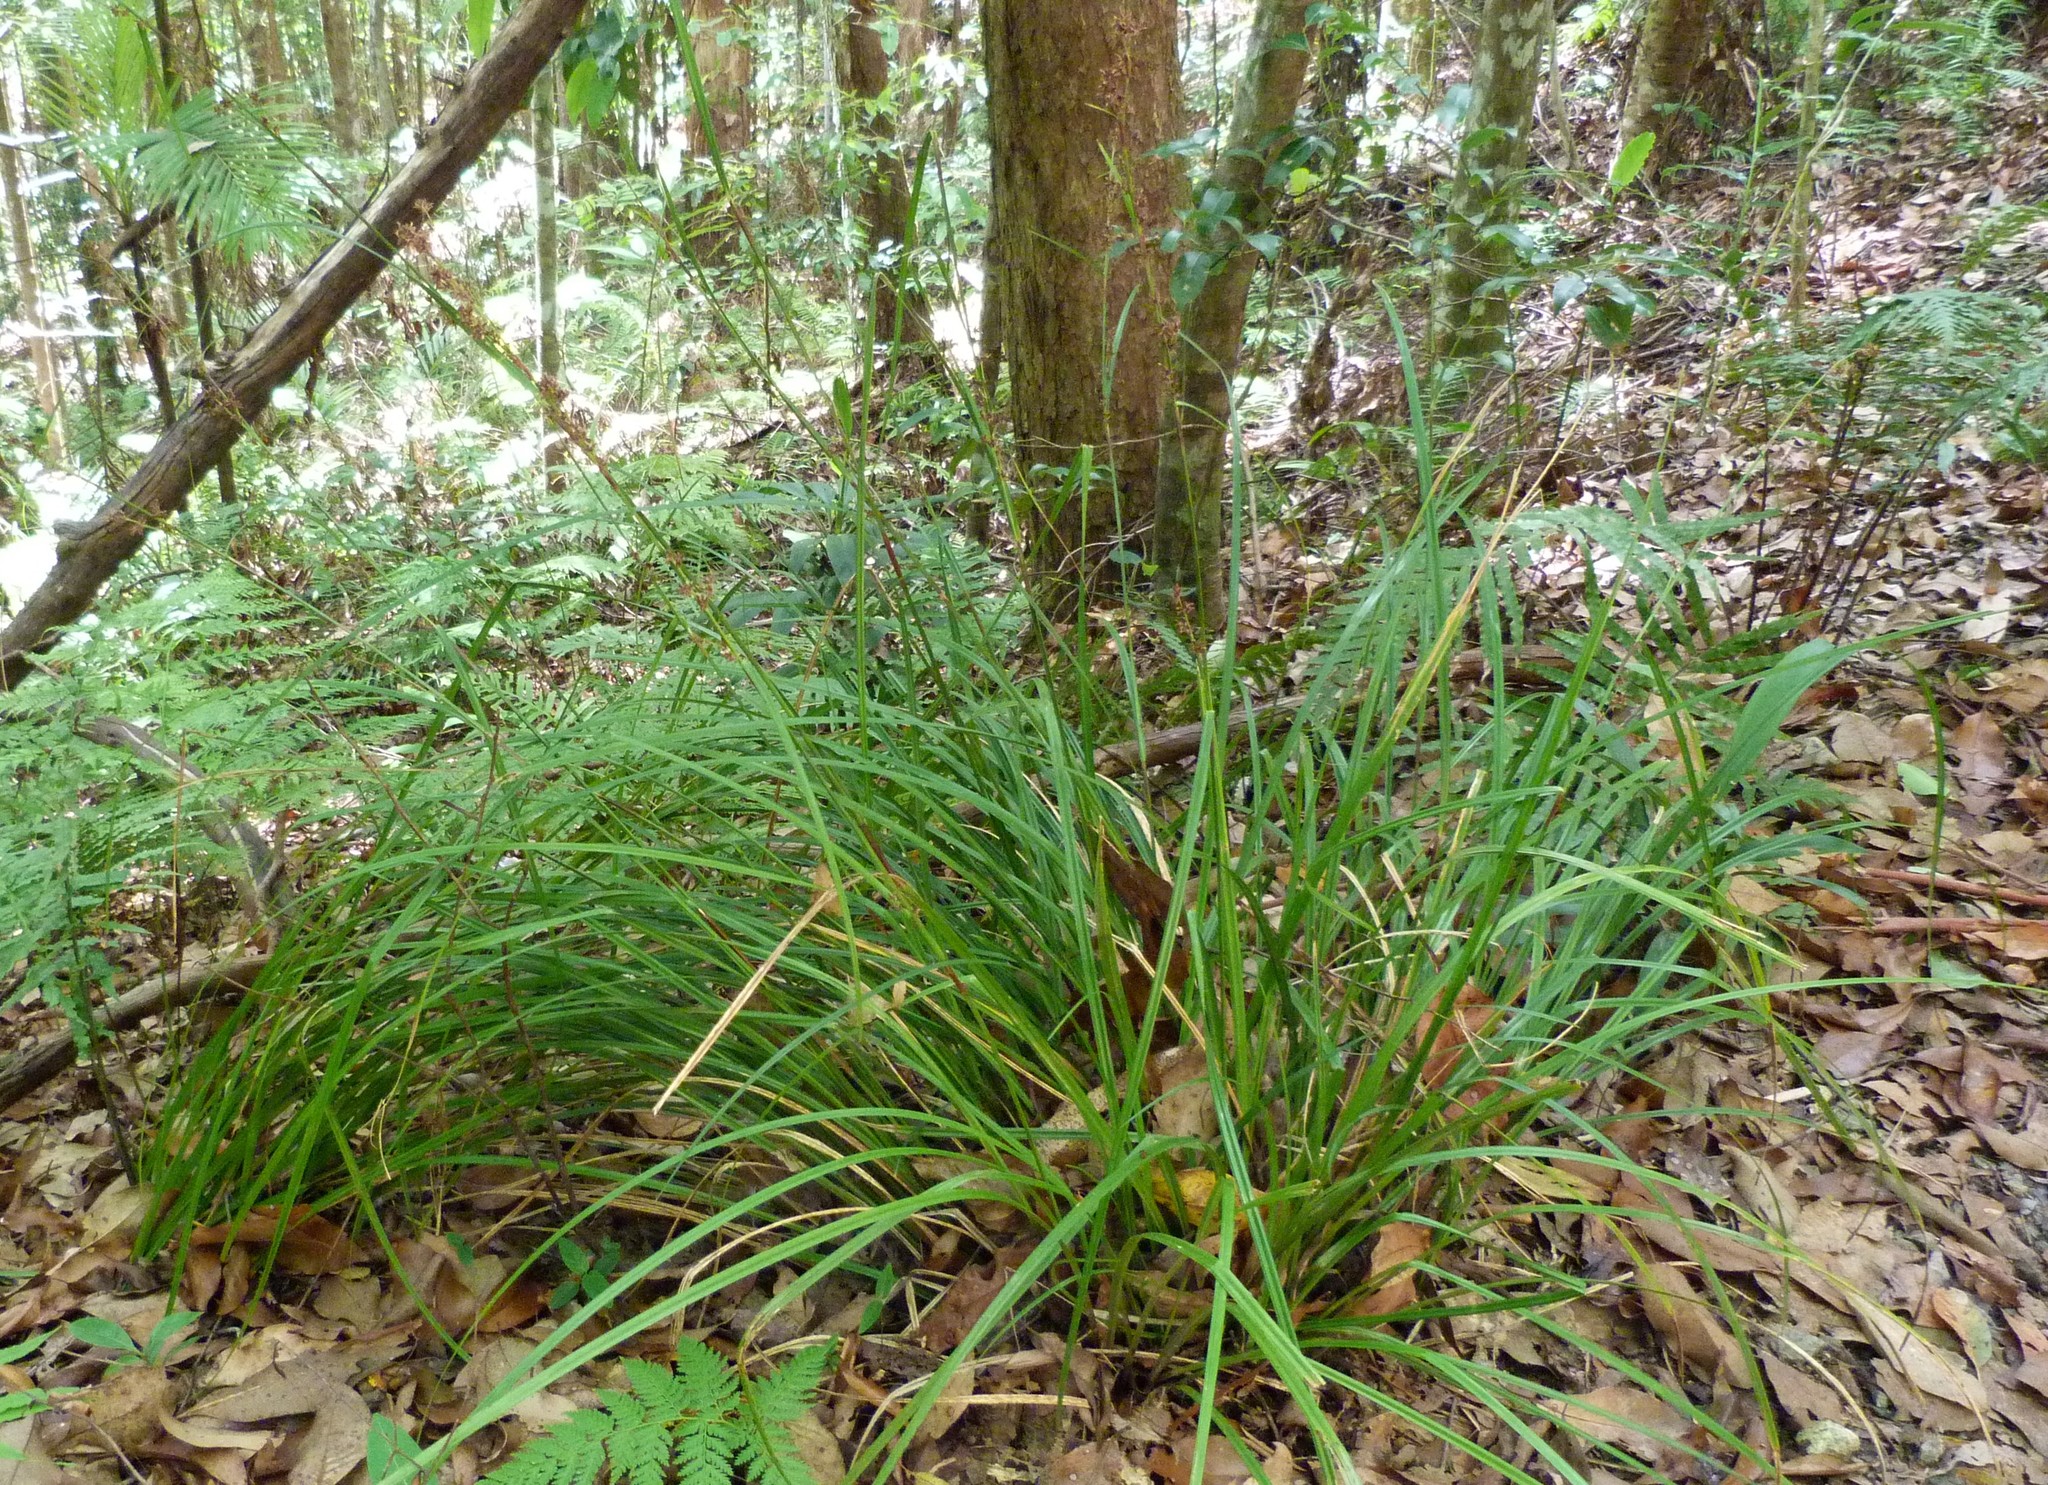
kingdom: Plantae
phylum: Tracheophyta
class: Liliopsida
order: Poales
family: Cyperaceae
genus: Scleria
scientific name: Scleria sphacelata
